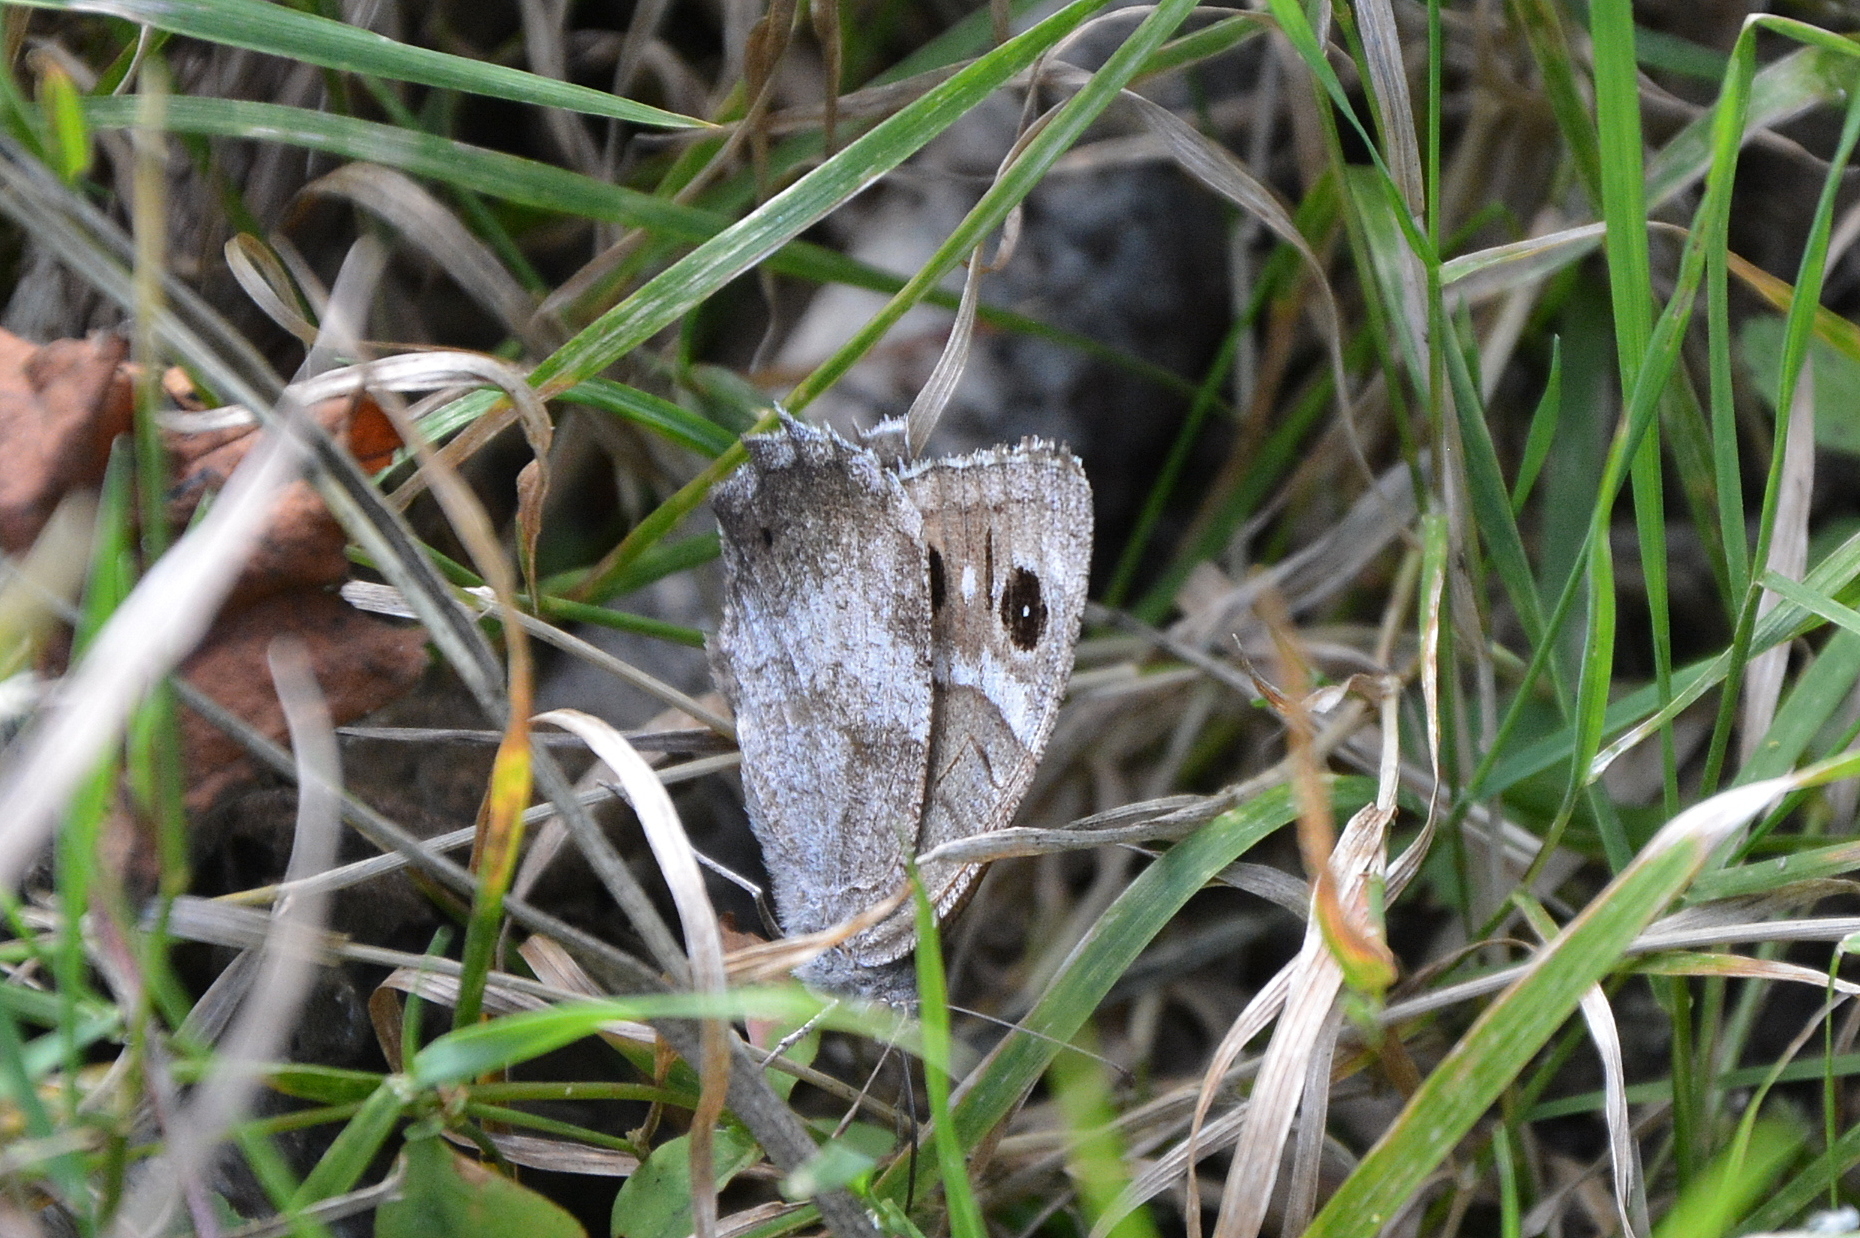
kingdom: Animalia
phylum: Arthropoda
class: Insecta
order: Lepidoptera
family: Nymphalidae
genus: Hipparchia
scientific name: Hipparchia statilinus
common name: Tree grayling
